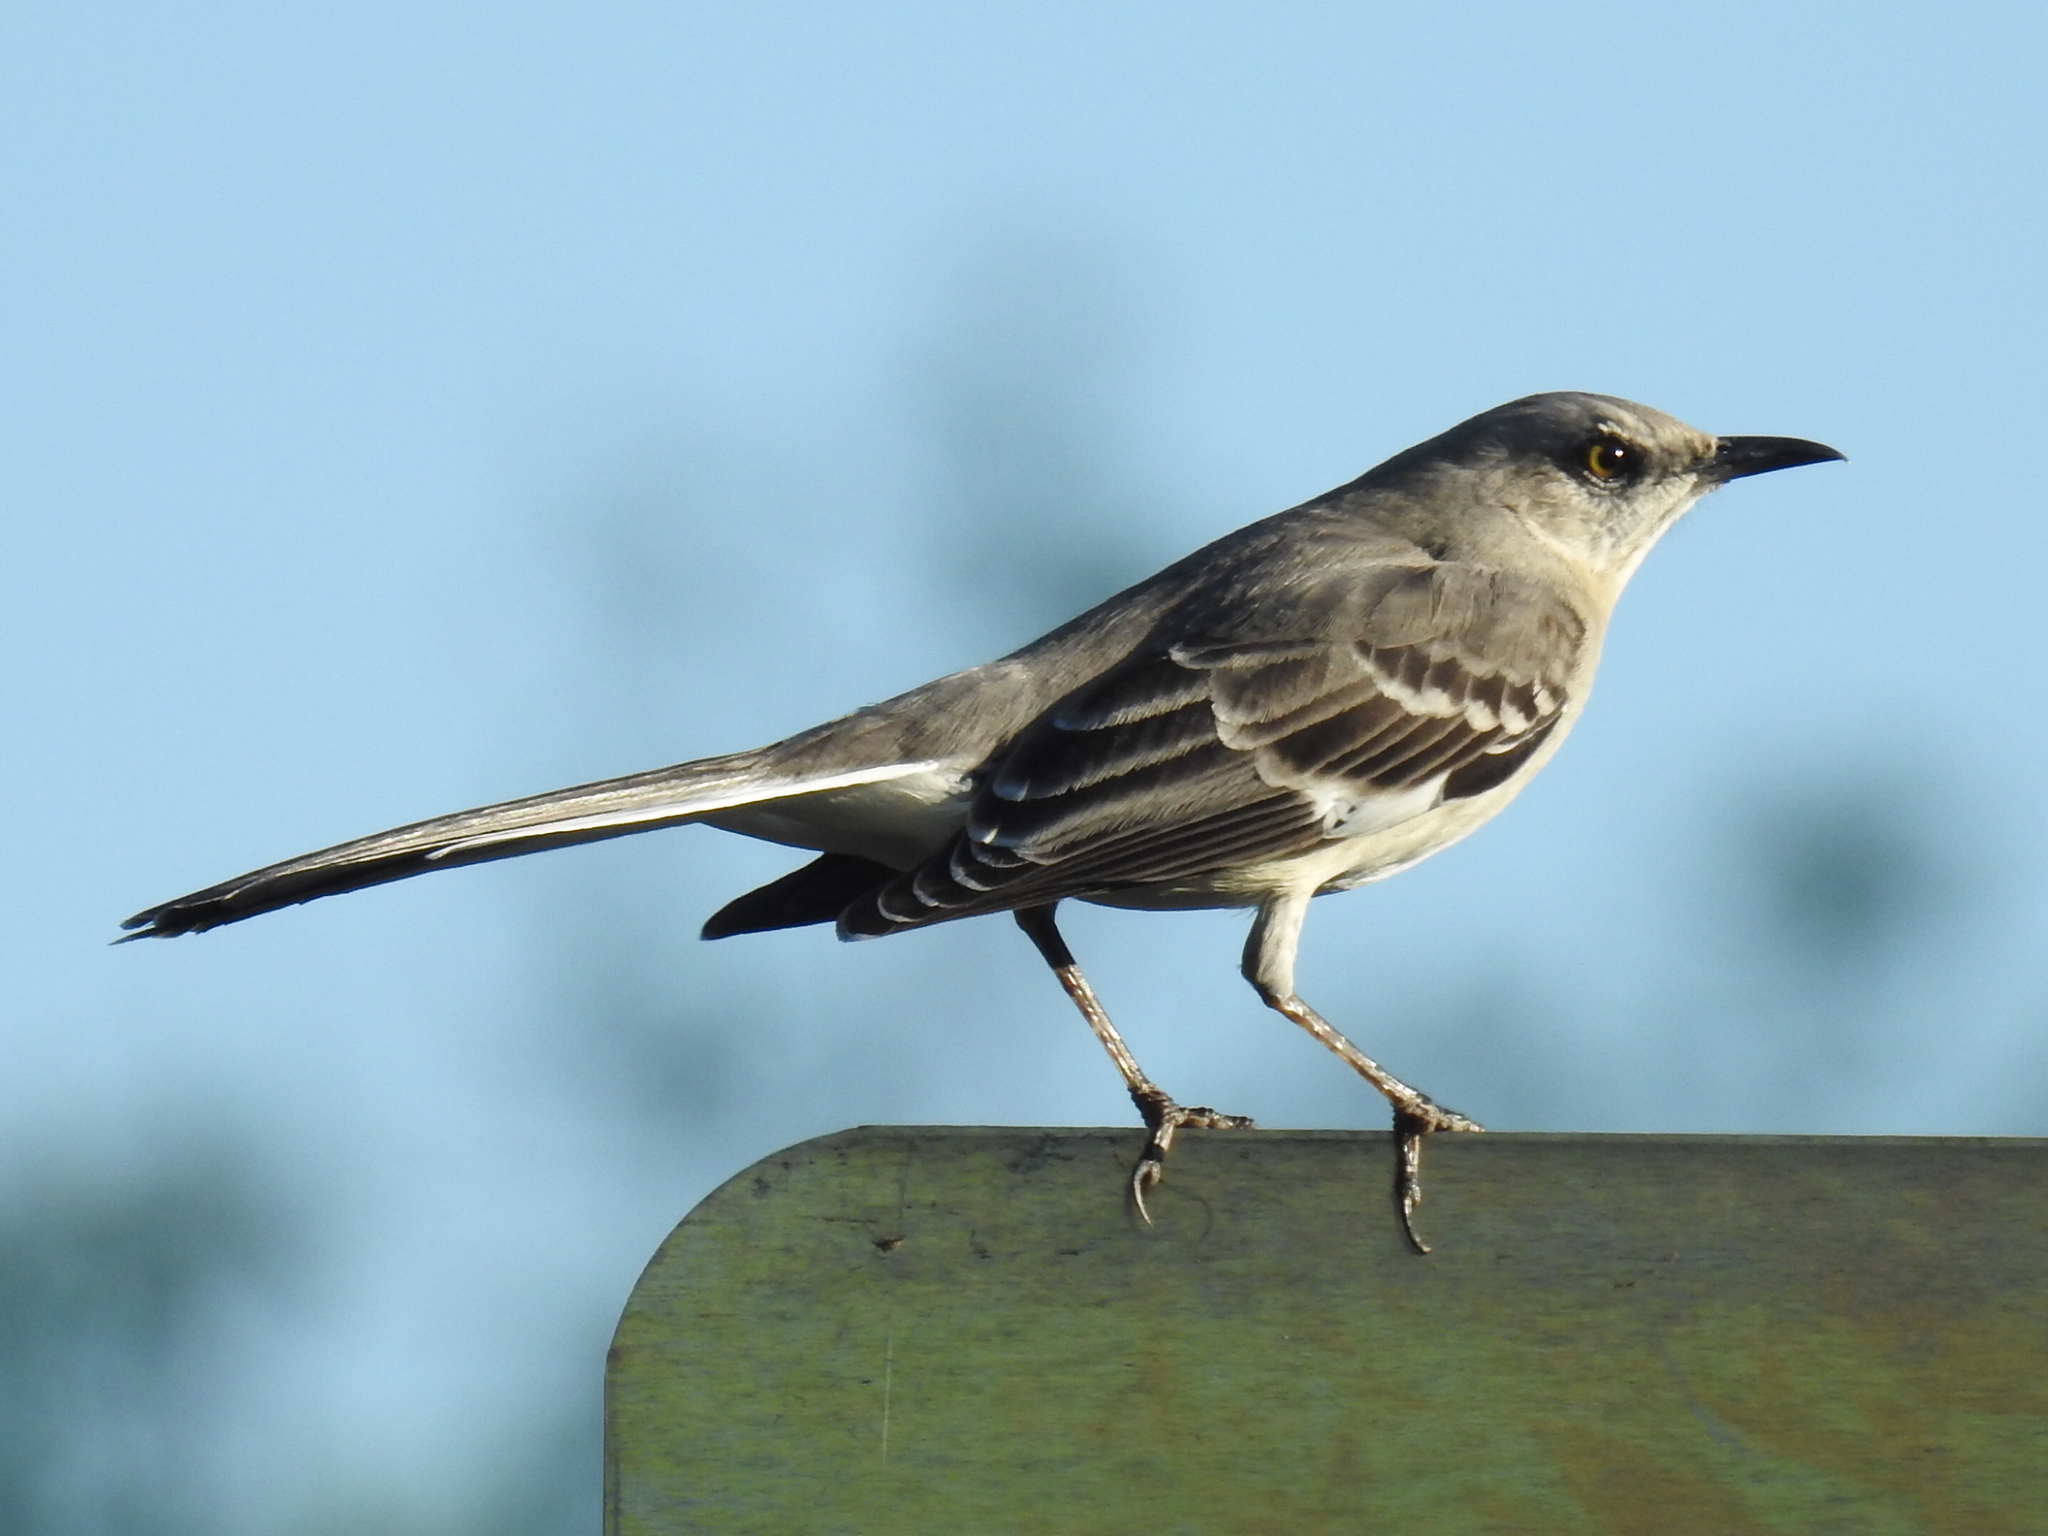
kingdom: Animalia
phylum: Chordata
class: Aves
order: Passeriformes
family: Mimidae
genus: Mimus
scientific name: Mimus polyglottos
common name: Northern mockingbird
